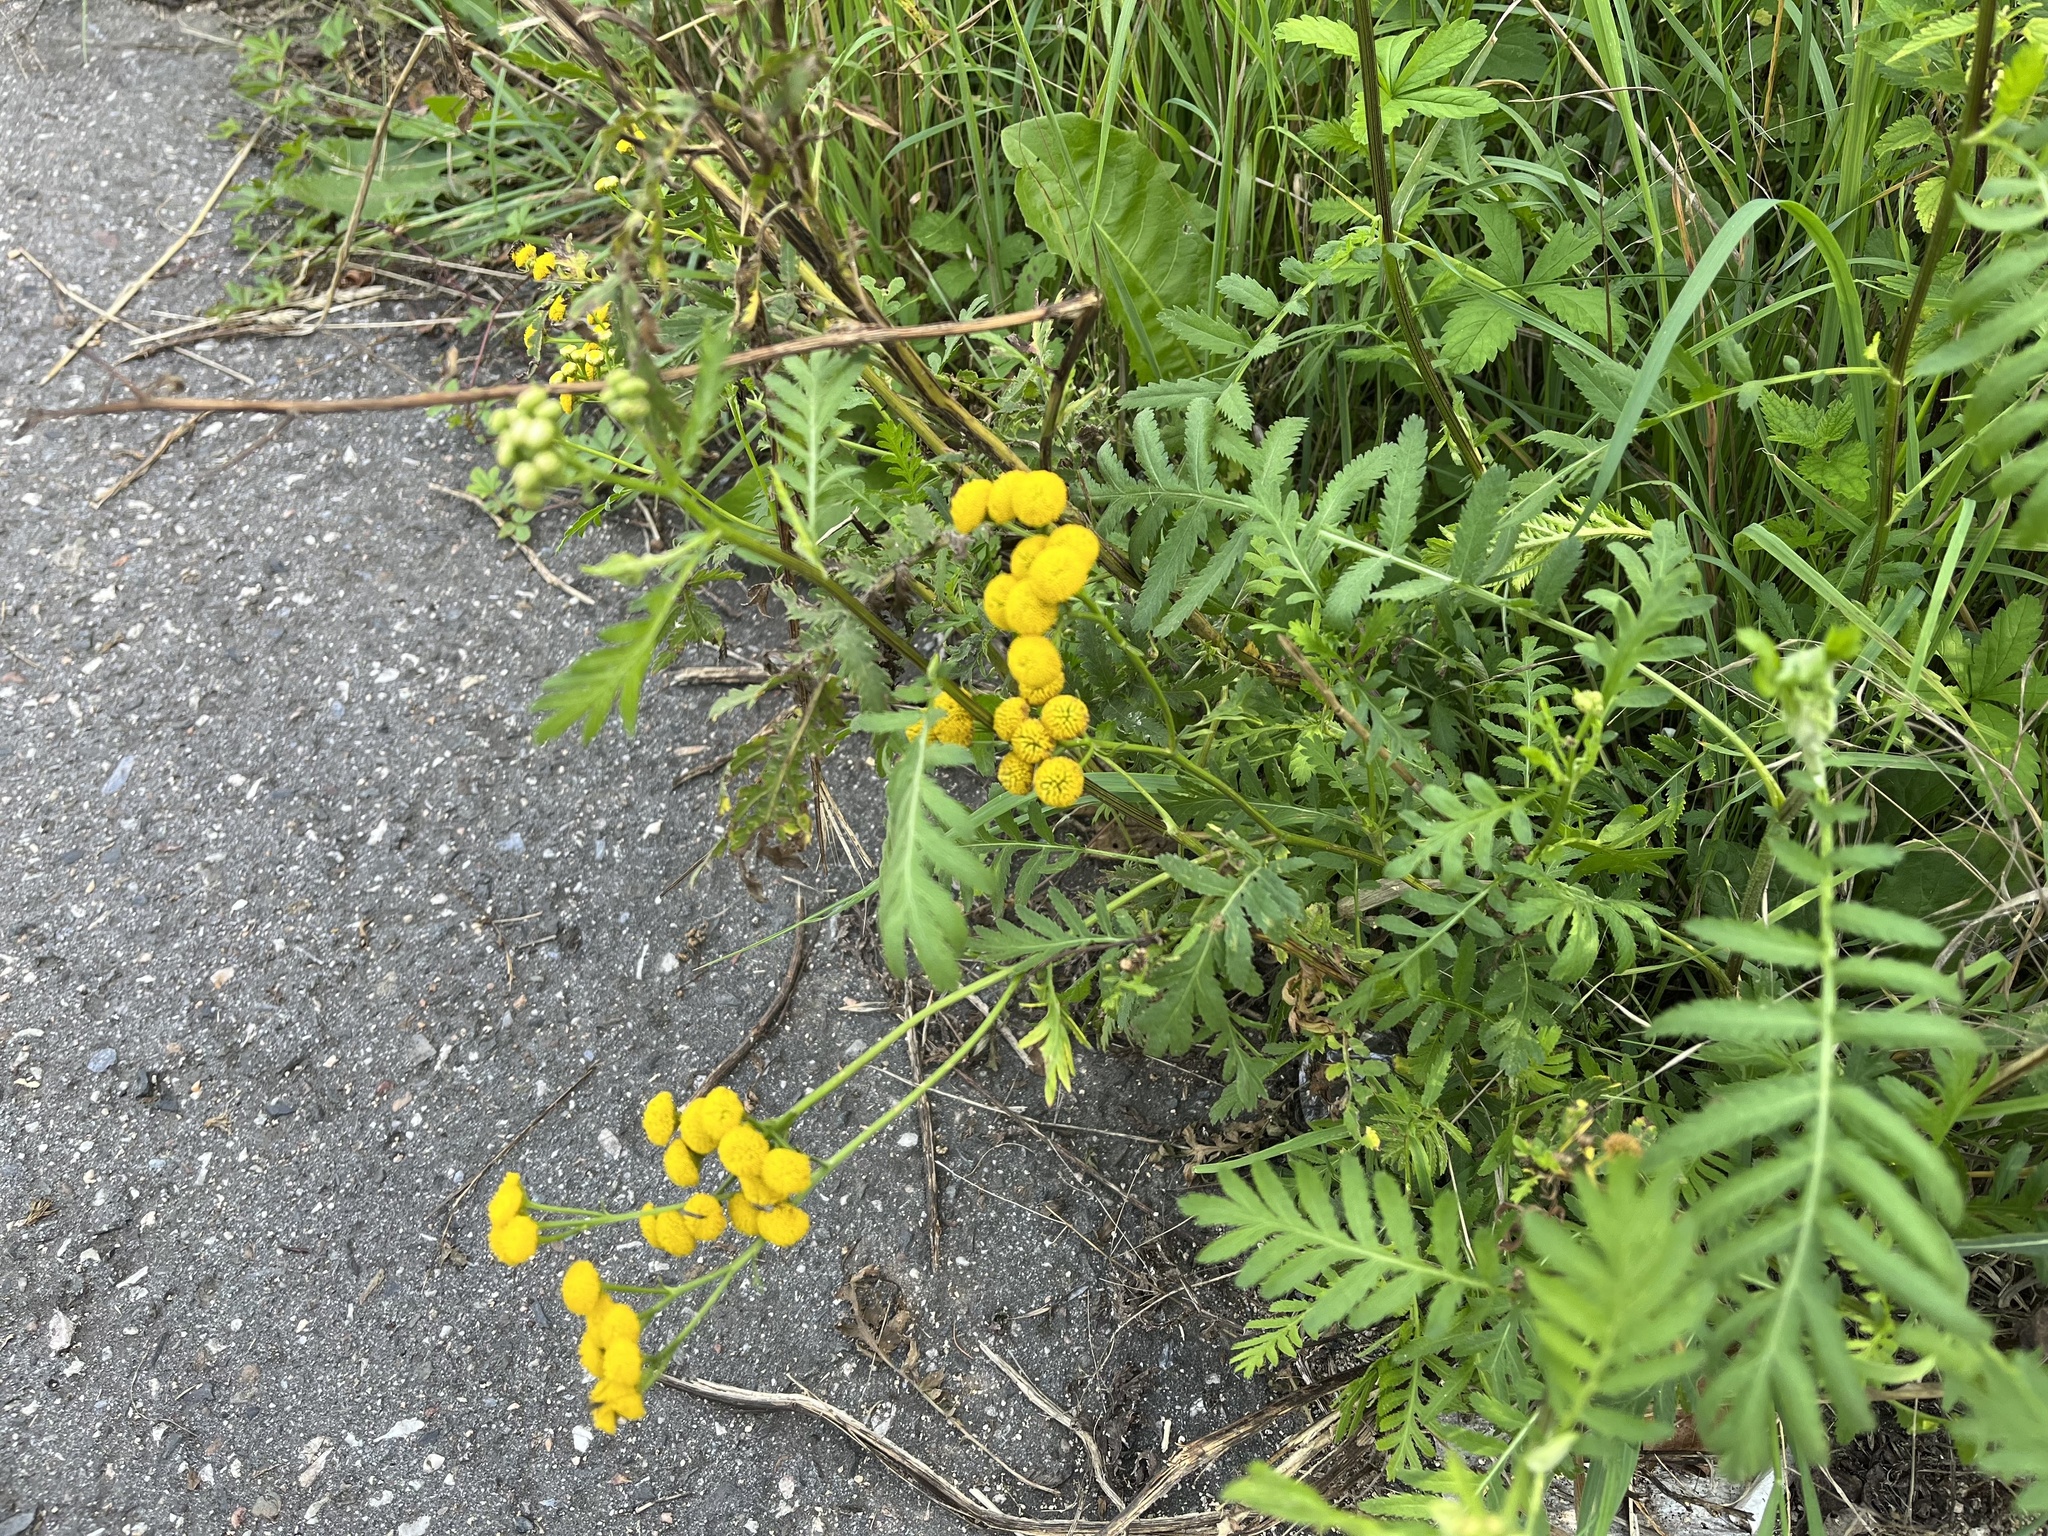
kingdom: Plantae
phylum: Tracheophyta
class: Magnoliopsida
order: Asterales
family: Asteraceae
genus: Tanacetum
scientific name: Tanacetum vulgare
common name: Common tansy
